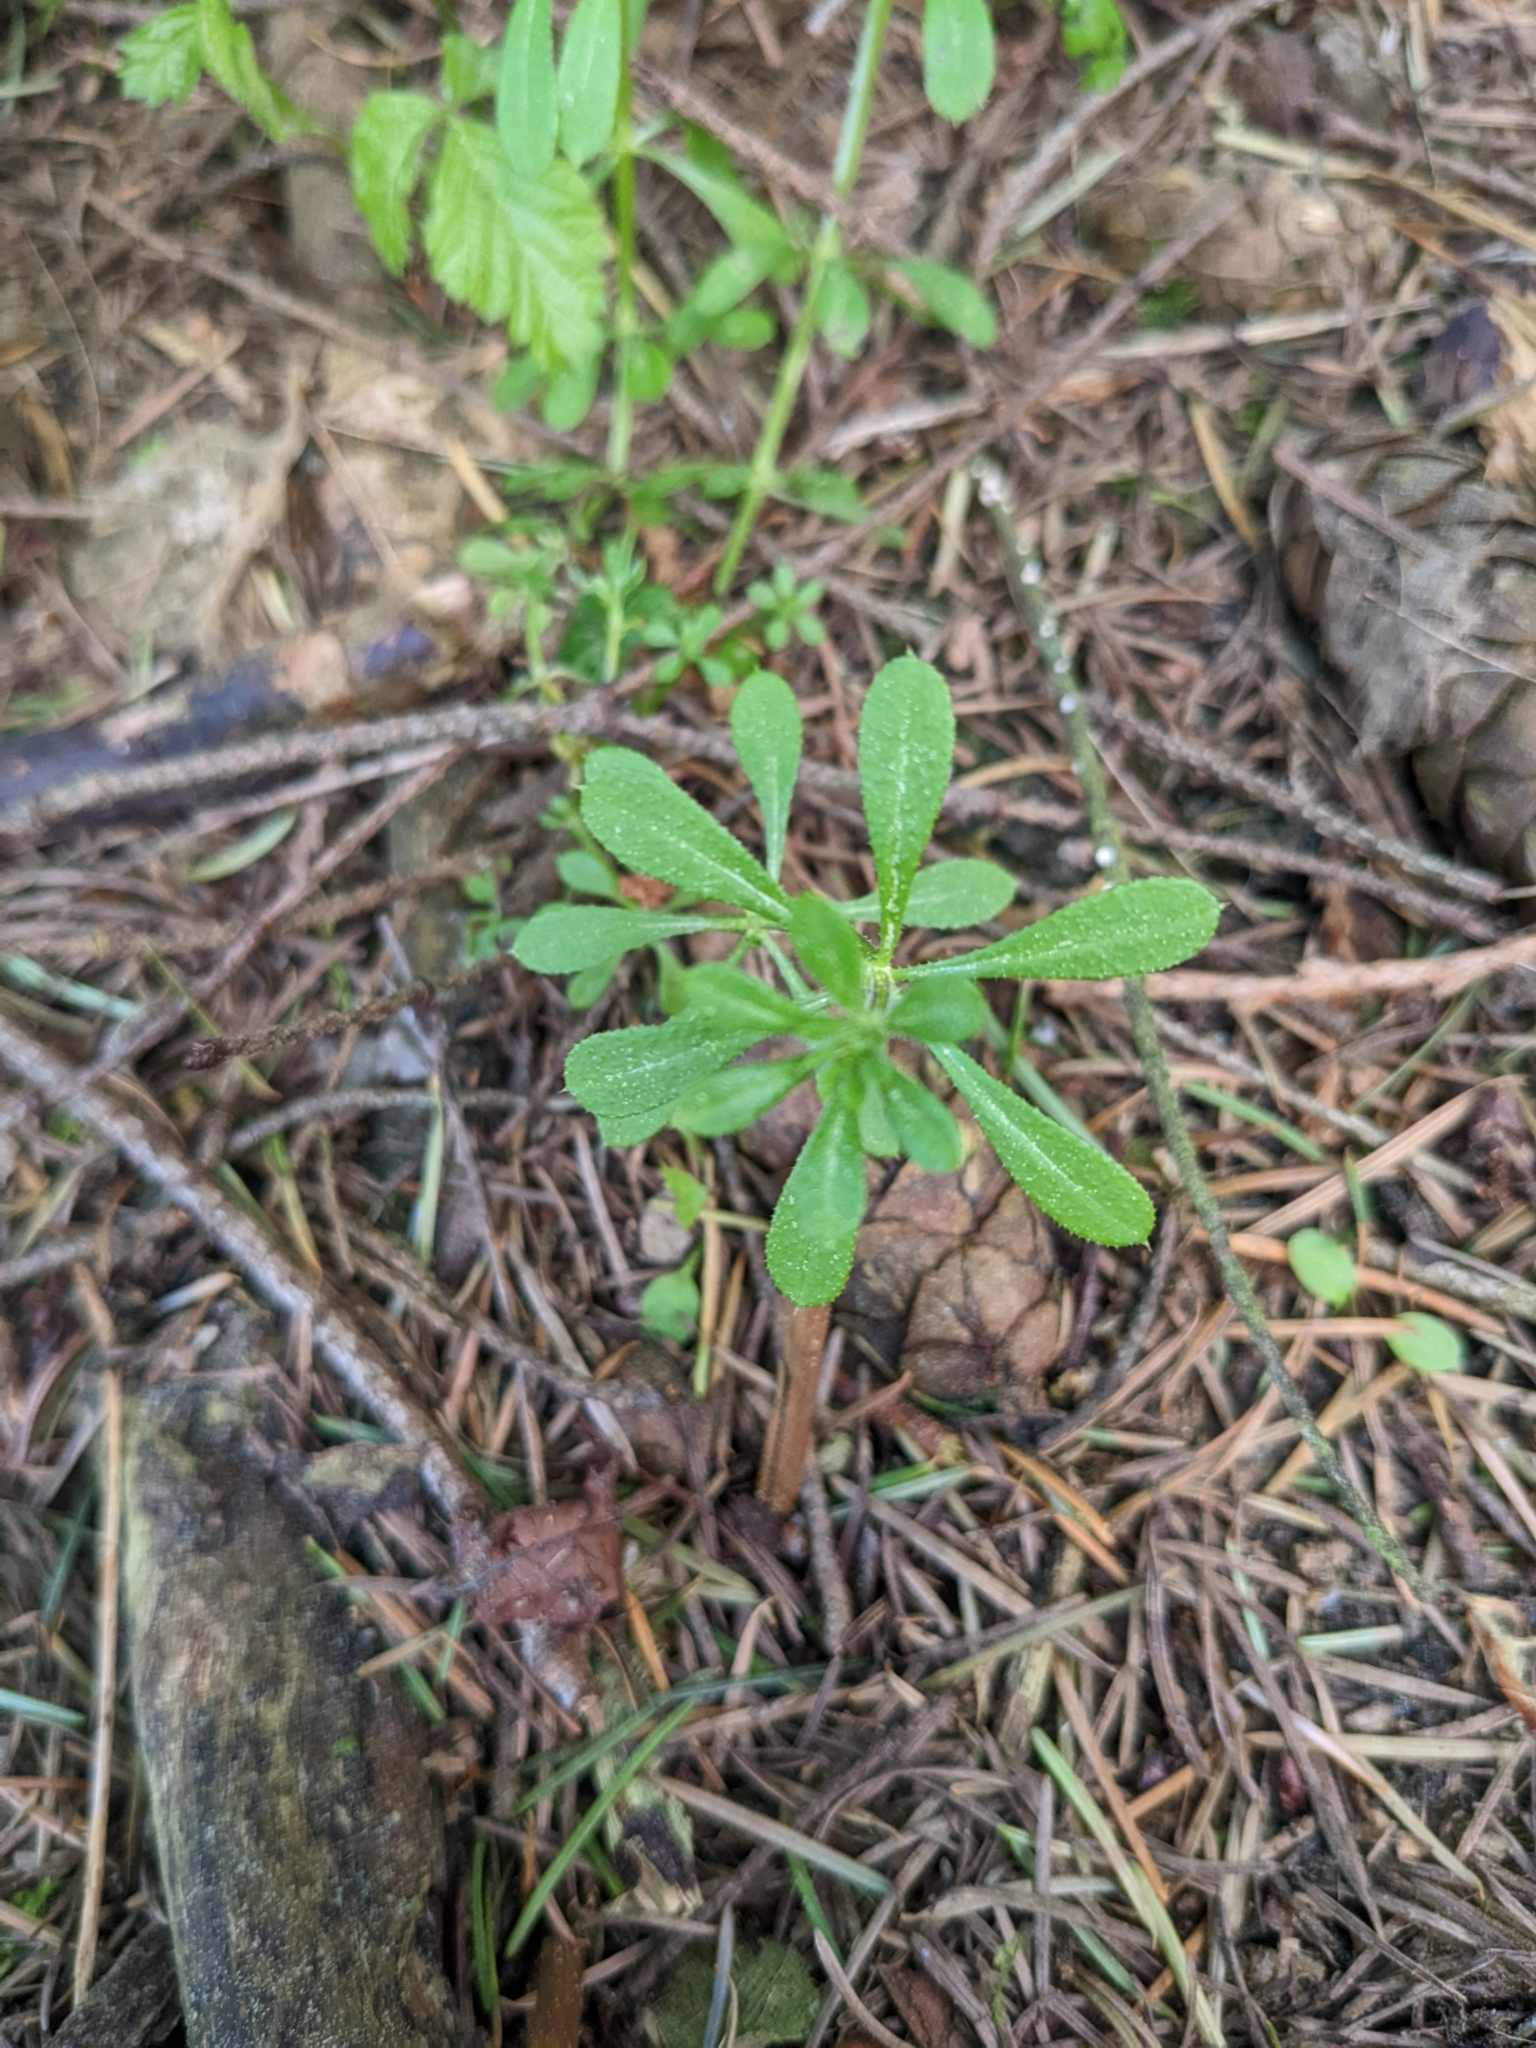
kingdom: Plantae
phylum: Tracheophyta
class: Magnoliopsida
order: Gentianales
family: Rubiaceae
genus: Galium
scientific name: Galium aparine
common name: Cleavers
